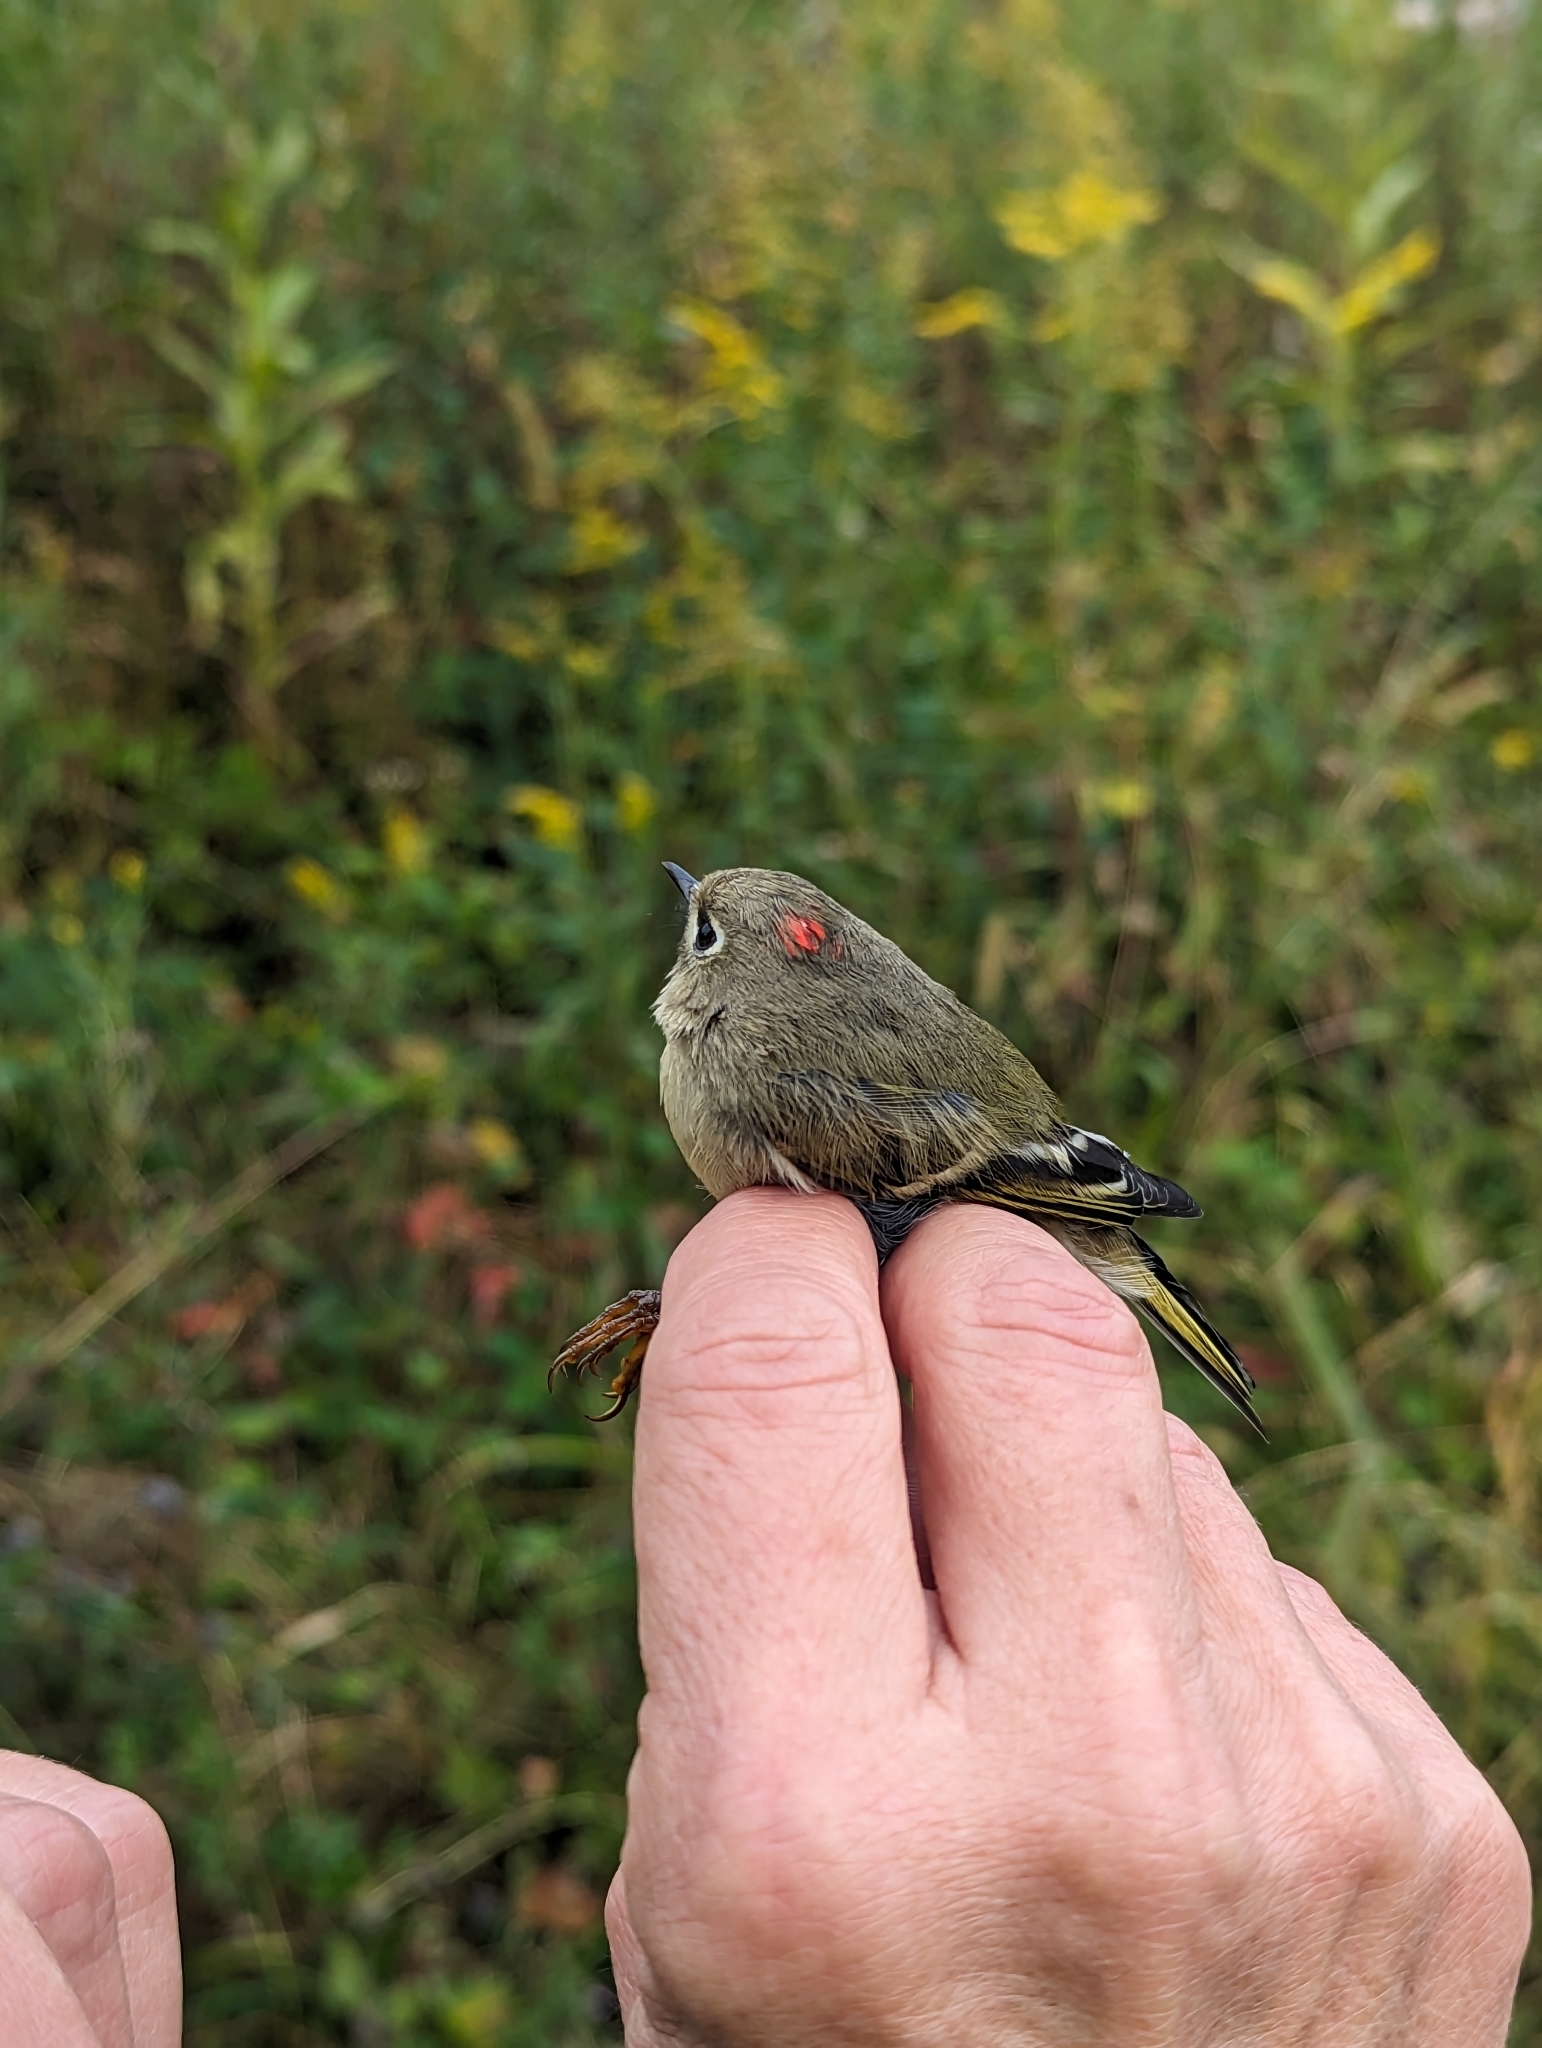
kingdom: Animalia
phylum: Chordata
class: Aves
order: Passeriformes
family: Regulidae
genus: Regulus
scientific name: Regulus calendula
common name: Ruby-crowned kinglet
